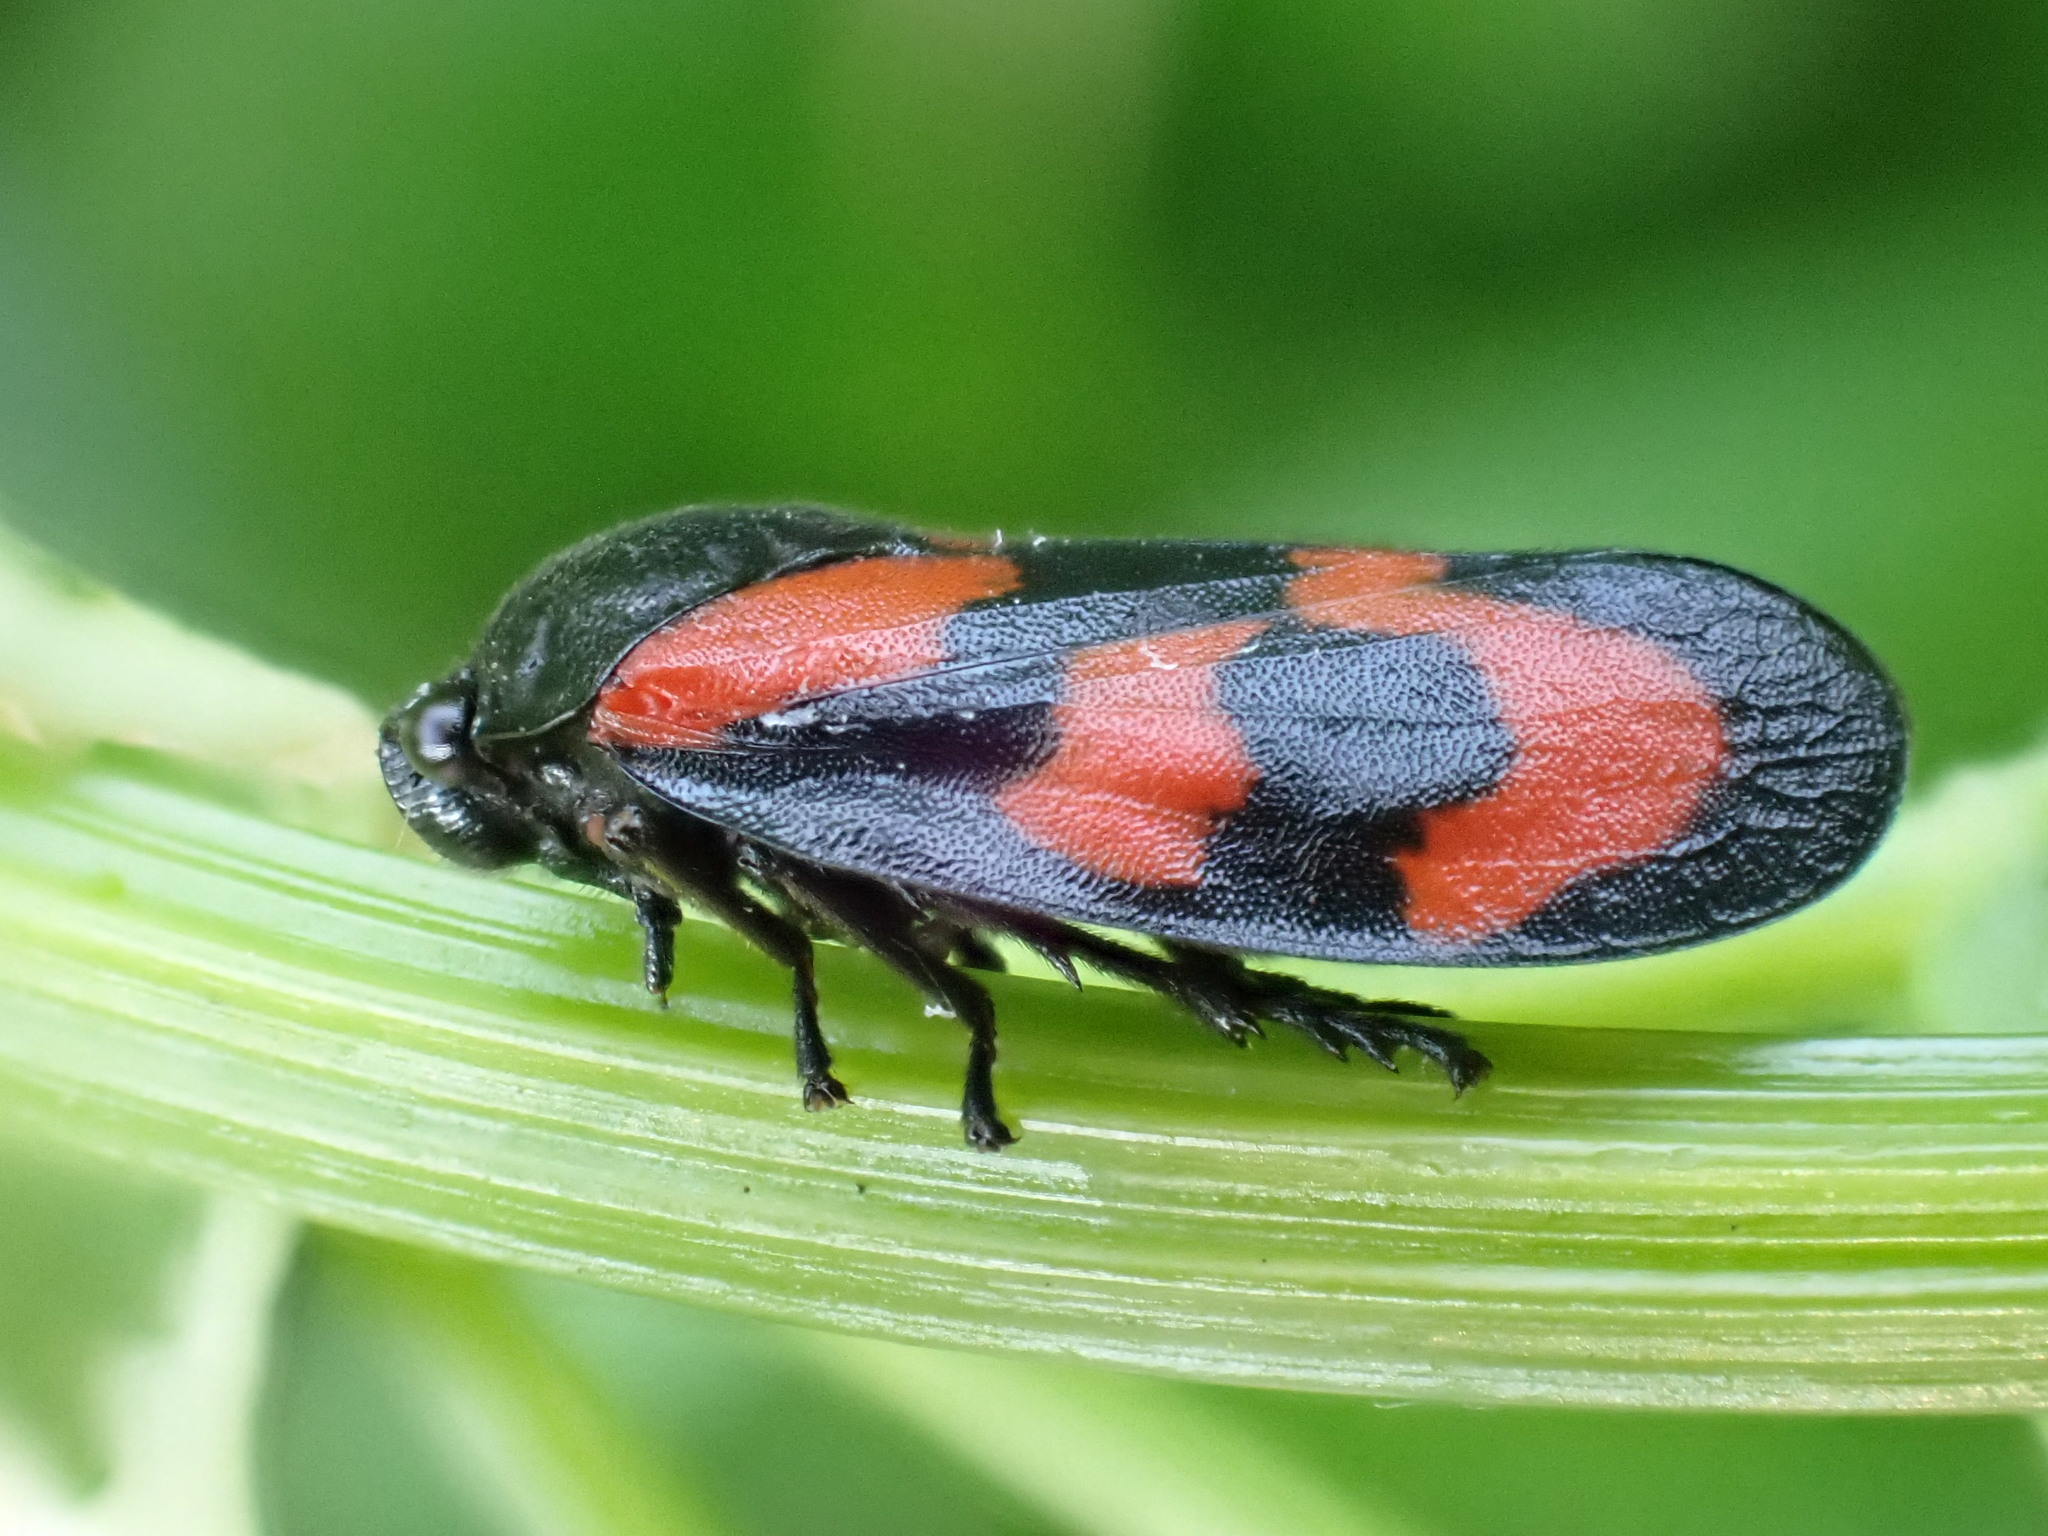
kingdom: Animalia
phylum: Arthropoda
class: Insecta
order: Hemiptera
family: Cercopidae
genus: Cercopis
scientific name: Cercopis vulnerata
